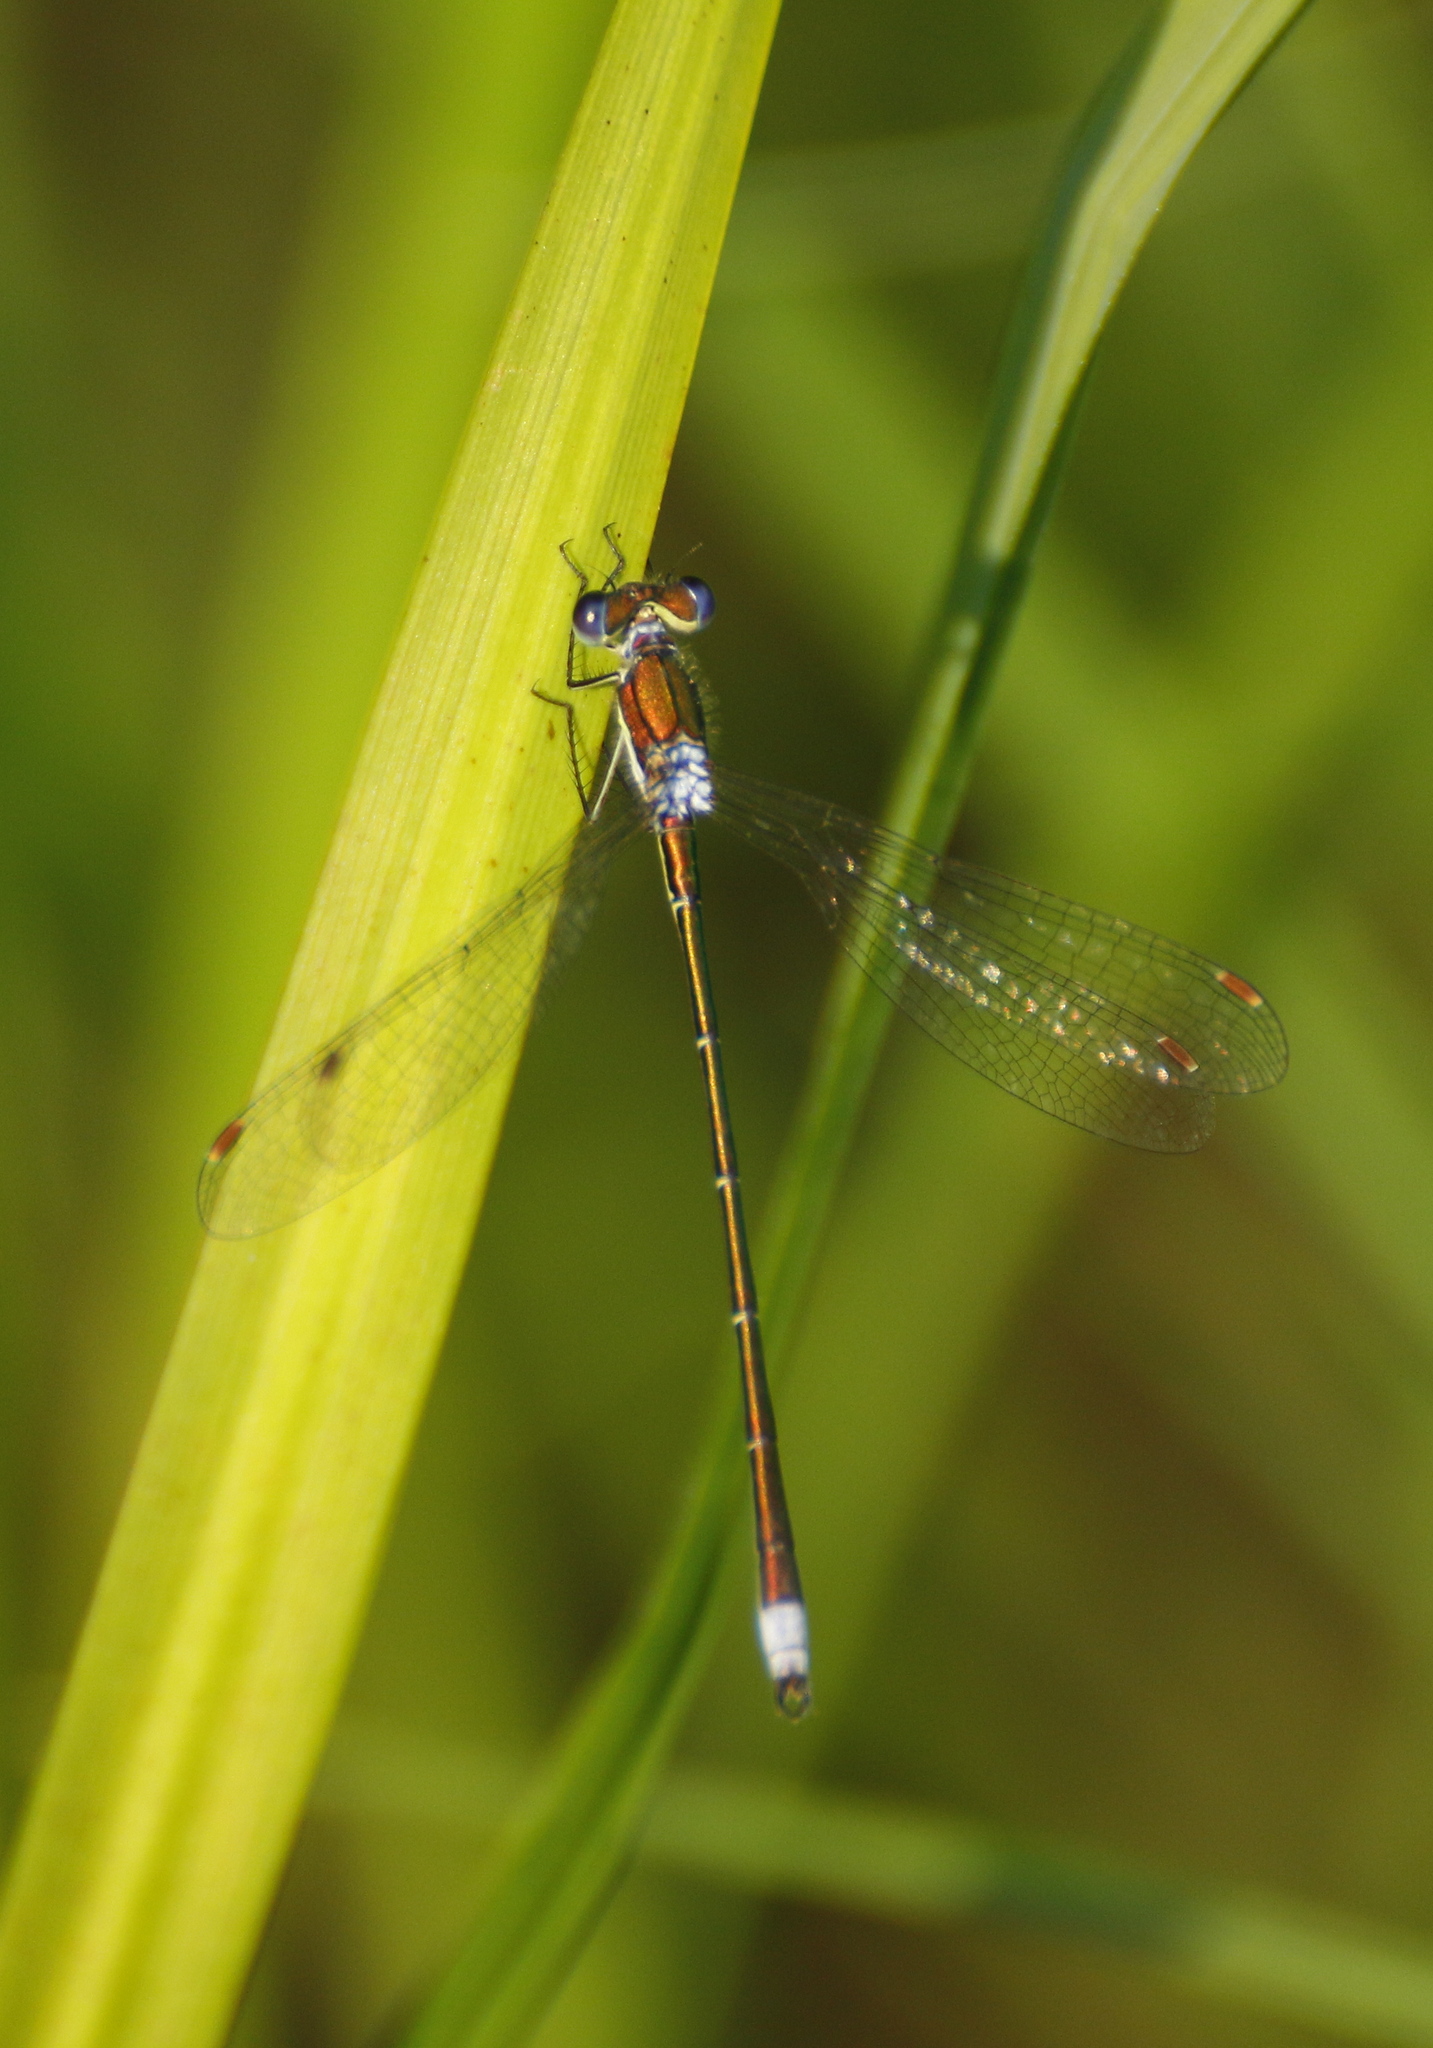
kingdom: Animalia
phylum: Arthropoda
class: Insecta
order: Odonata
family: Lestidae
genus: Lestes
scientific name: Lestes virens
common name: Small emerald spreadwing
